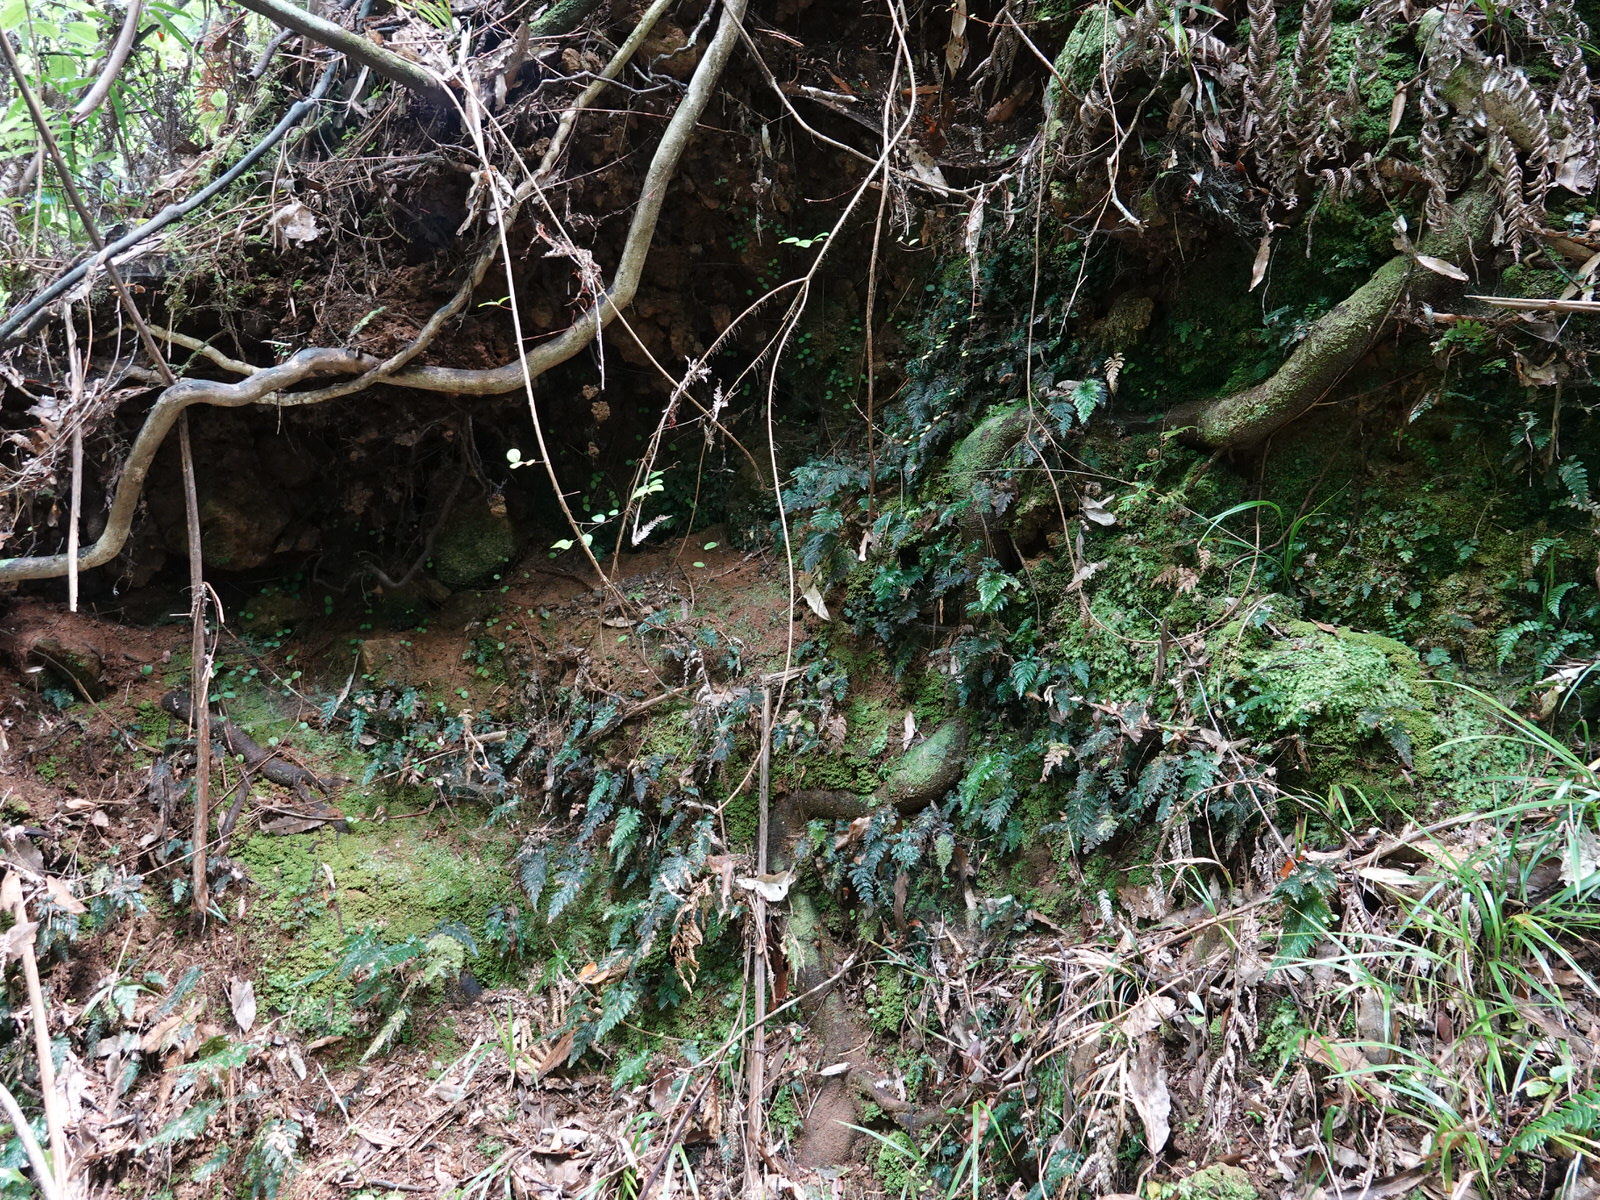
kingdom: Plantae
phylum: Tracheophyta
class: Polypodiopsida
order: Hymenophyllales
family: Hymenophyllaceae
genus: Abrodictyum
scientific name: Abrodictyum elongatum
